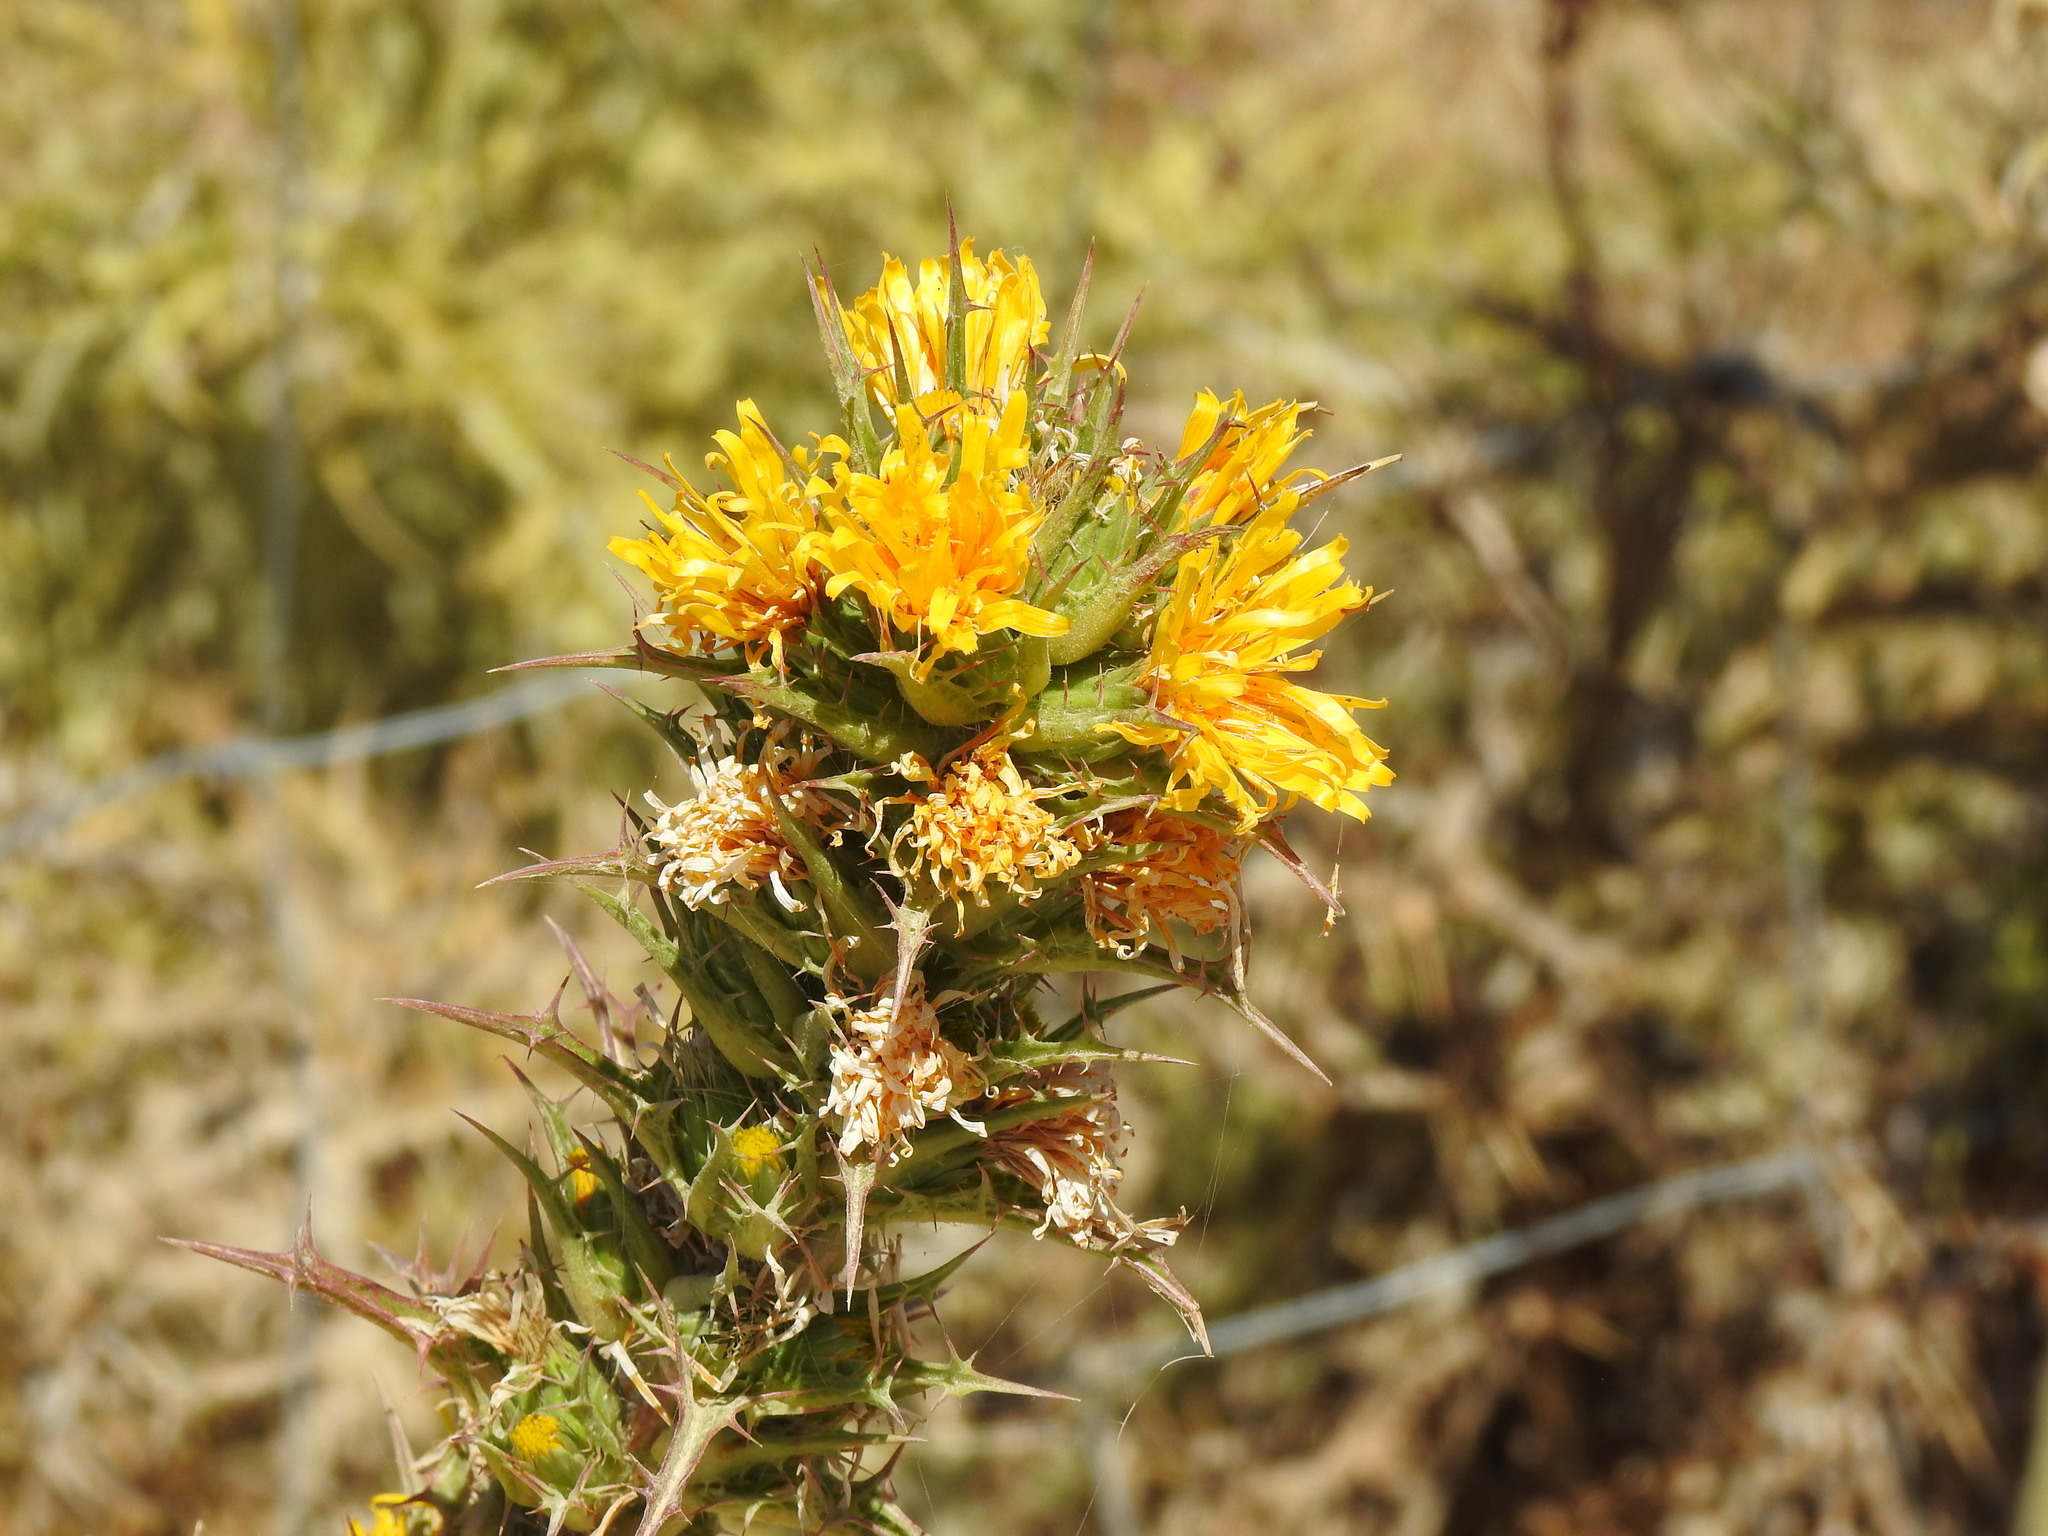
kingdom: Plantae
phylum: Tracheophyta
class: Magnoliopsida
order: Asterales
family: Asteraceae
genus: Scolymus
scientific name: Scolymus hispanicus
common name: Golden thistle
